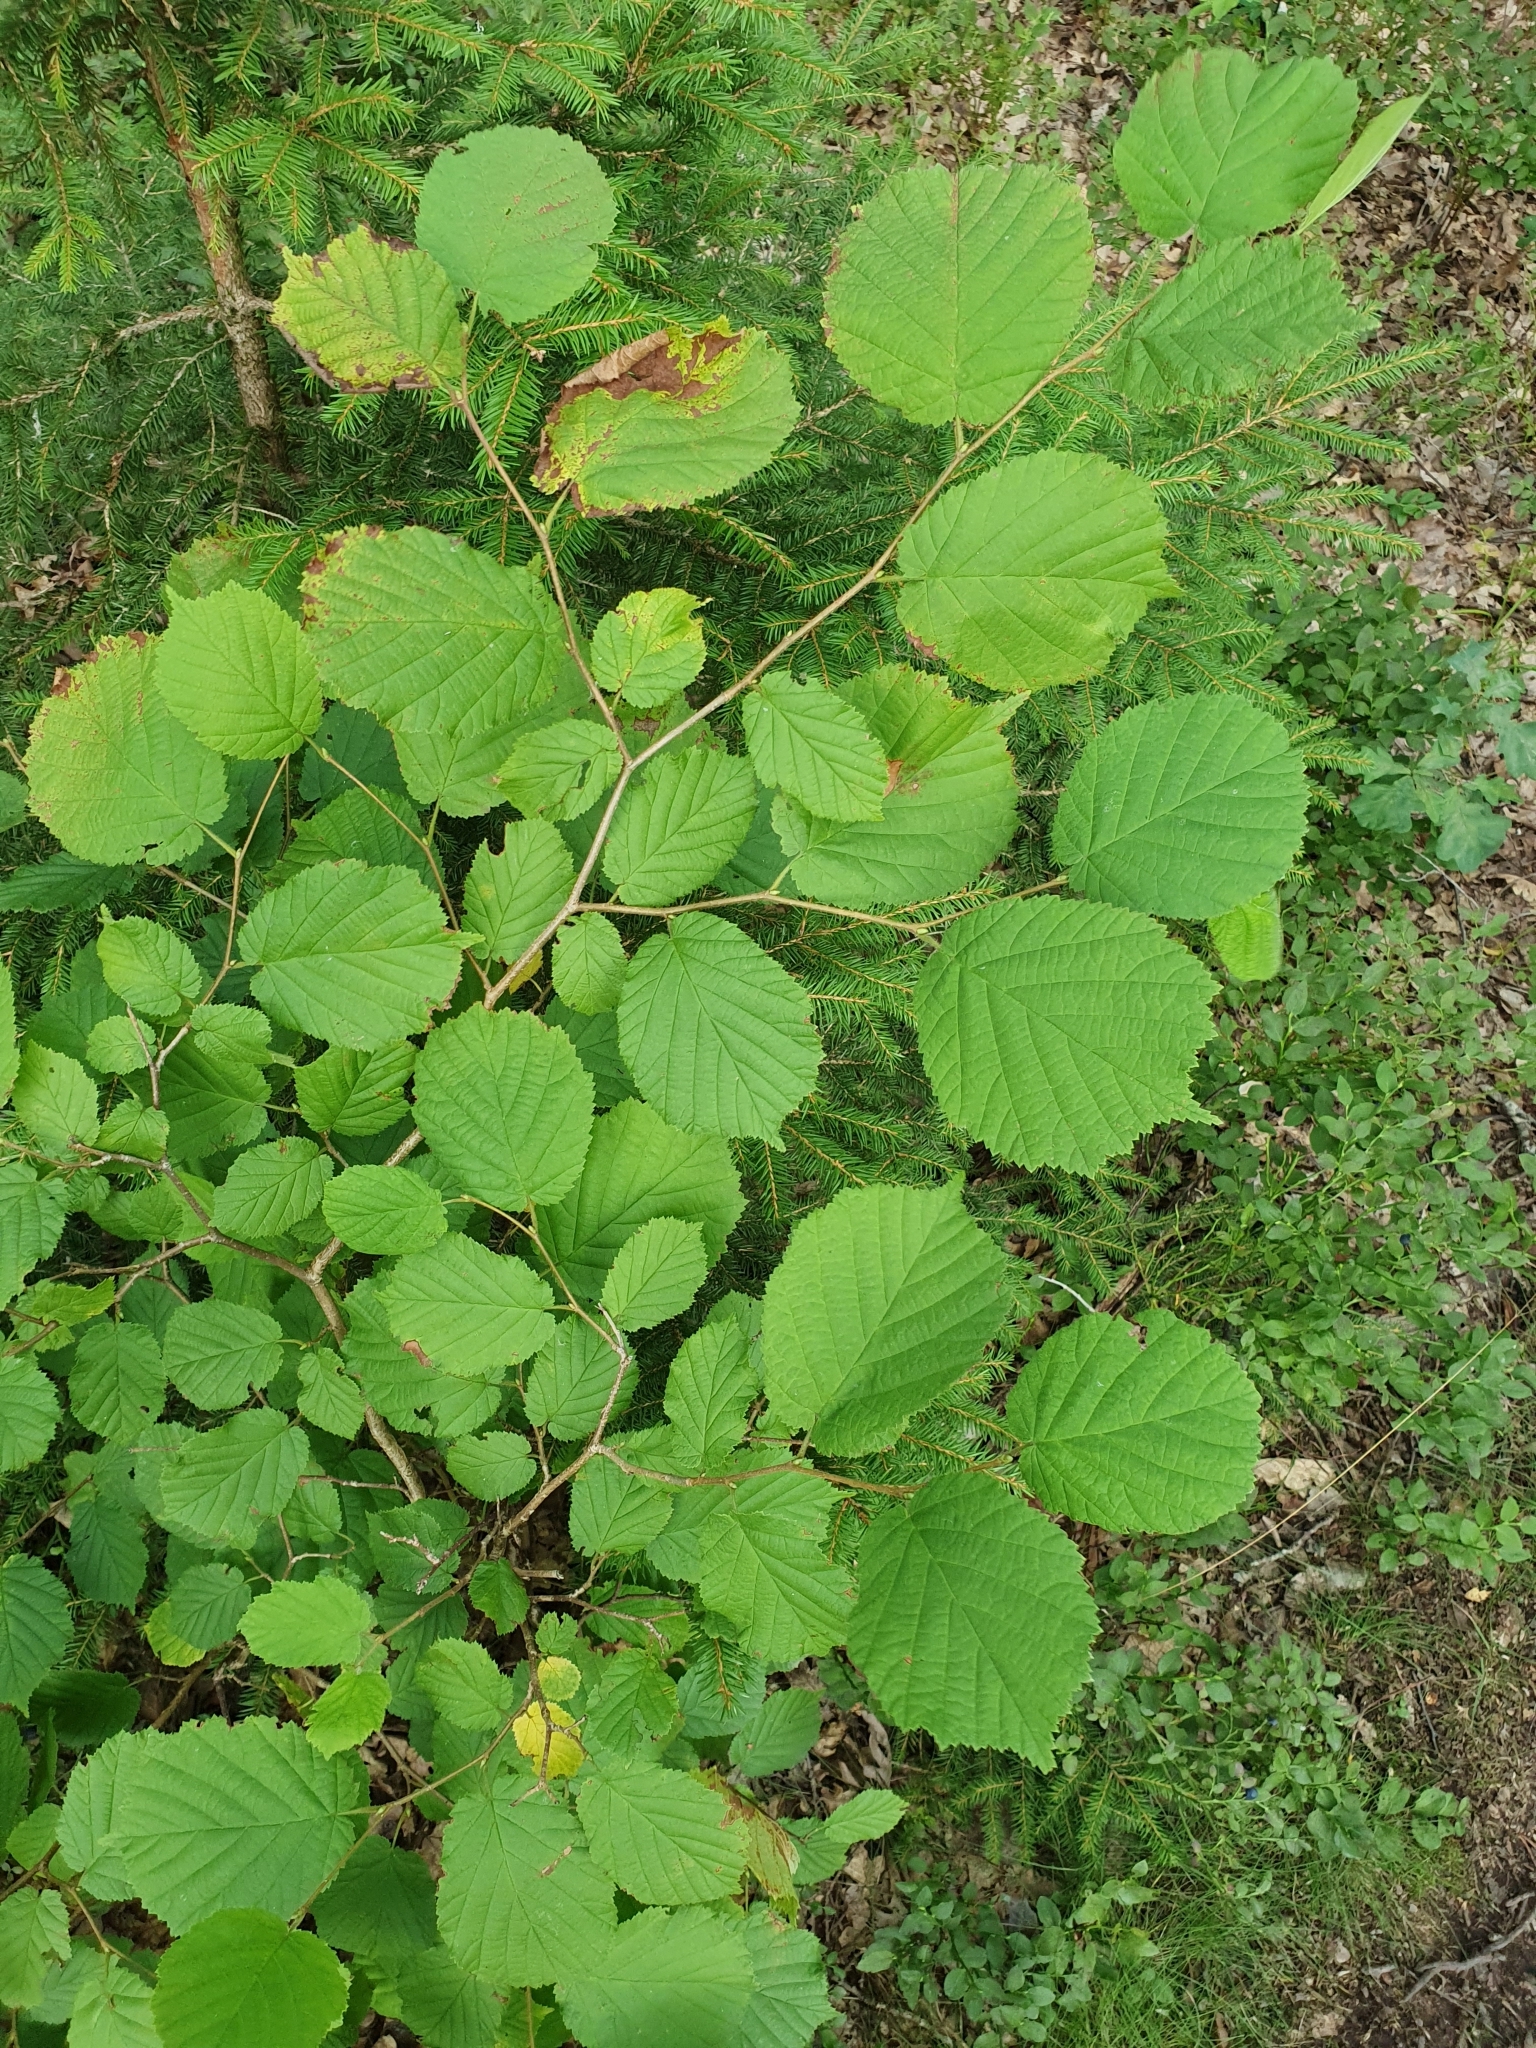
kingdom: Plantae
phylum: Tracheophyta
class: Magnoliopsida
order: Fagales
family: Betulaceae
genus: Corylus
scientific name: Corylus avellana
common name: European hazel
